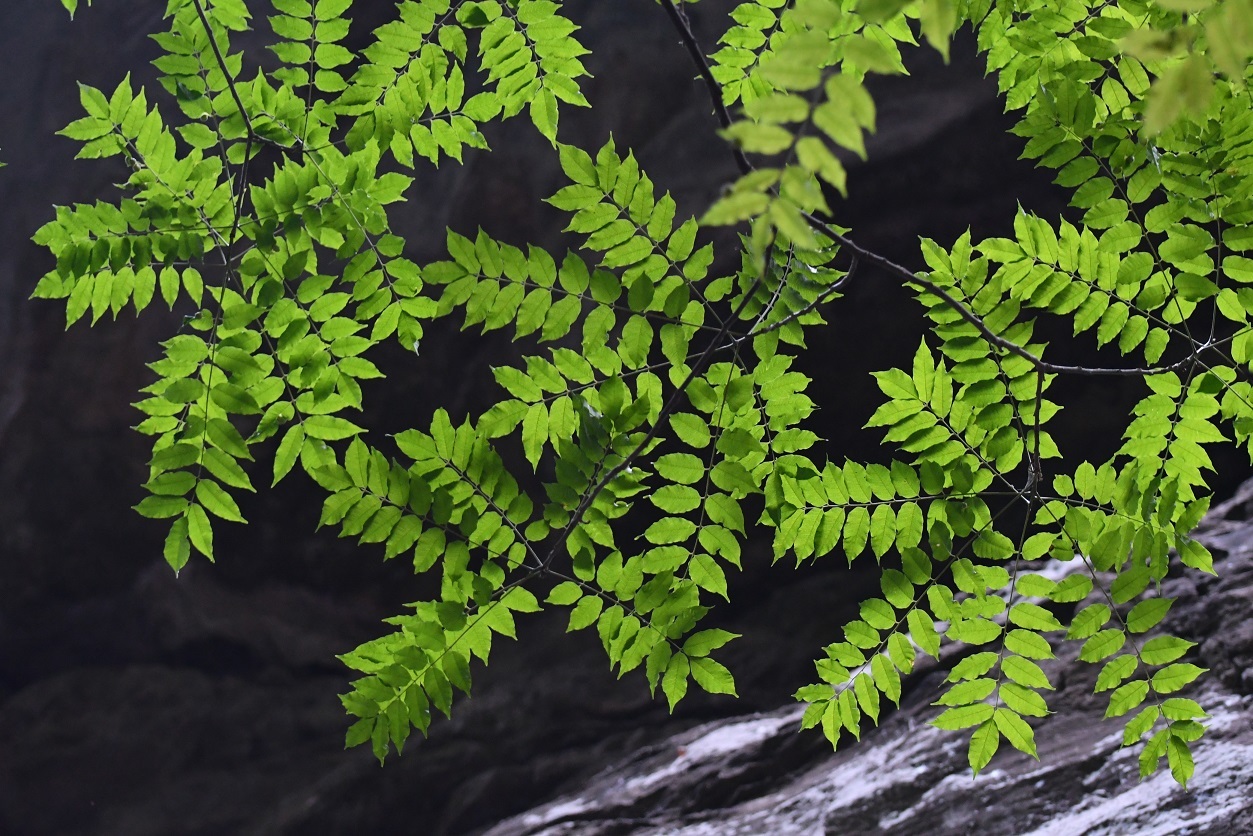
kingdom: Plantae
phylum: Tracheophyta
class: Magnoliopsida
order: Sapindales
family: Anacardiaceae
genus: Astronium
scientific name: Astronium graveolens
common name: Glassywood
